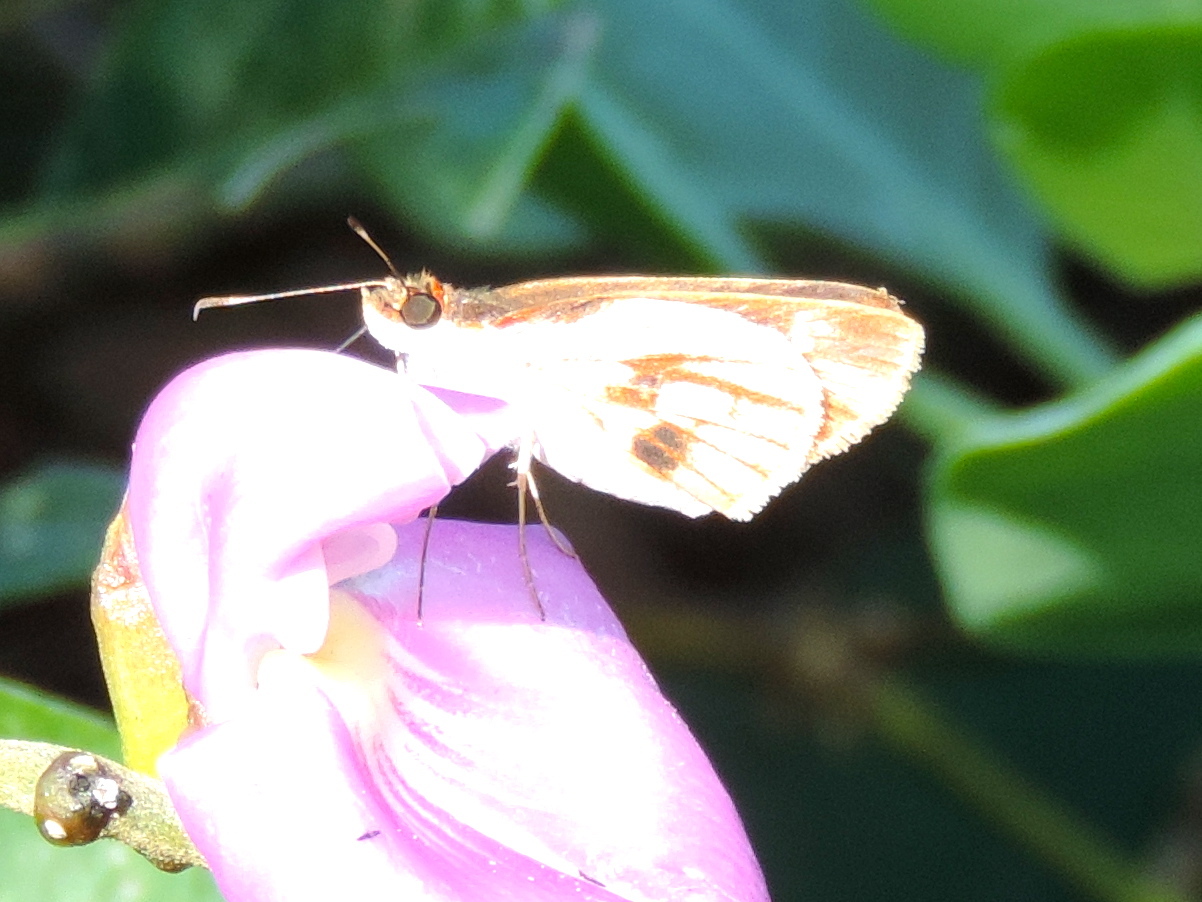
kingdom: Animalia
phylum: Arthropoda
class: Insecta
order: Lepidoptera
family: Hesperiidae
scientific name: Hesperiidae
